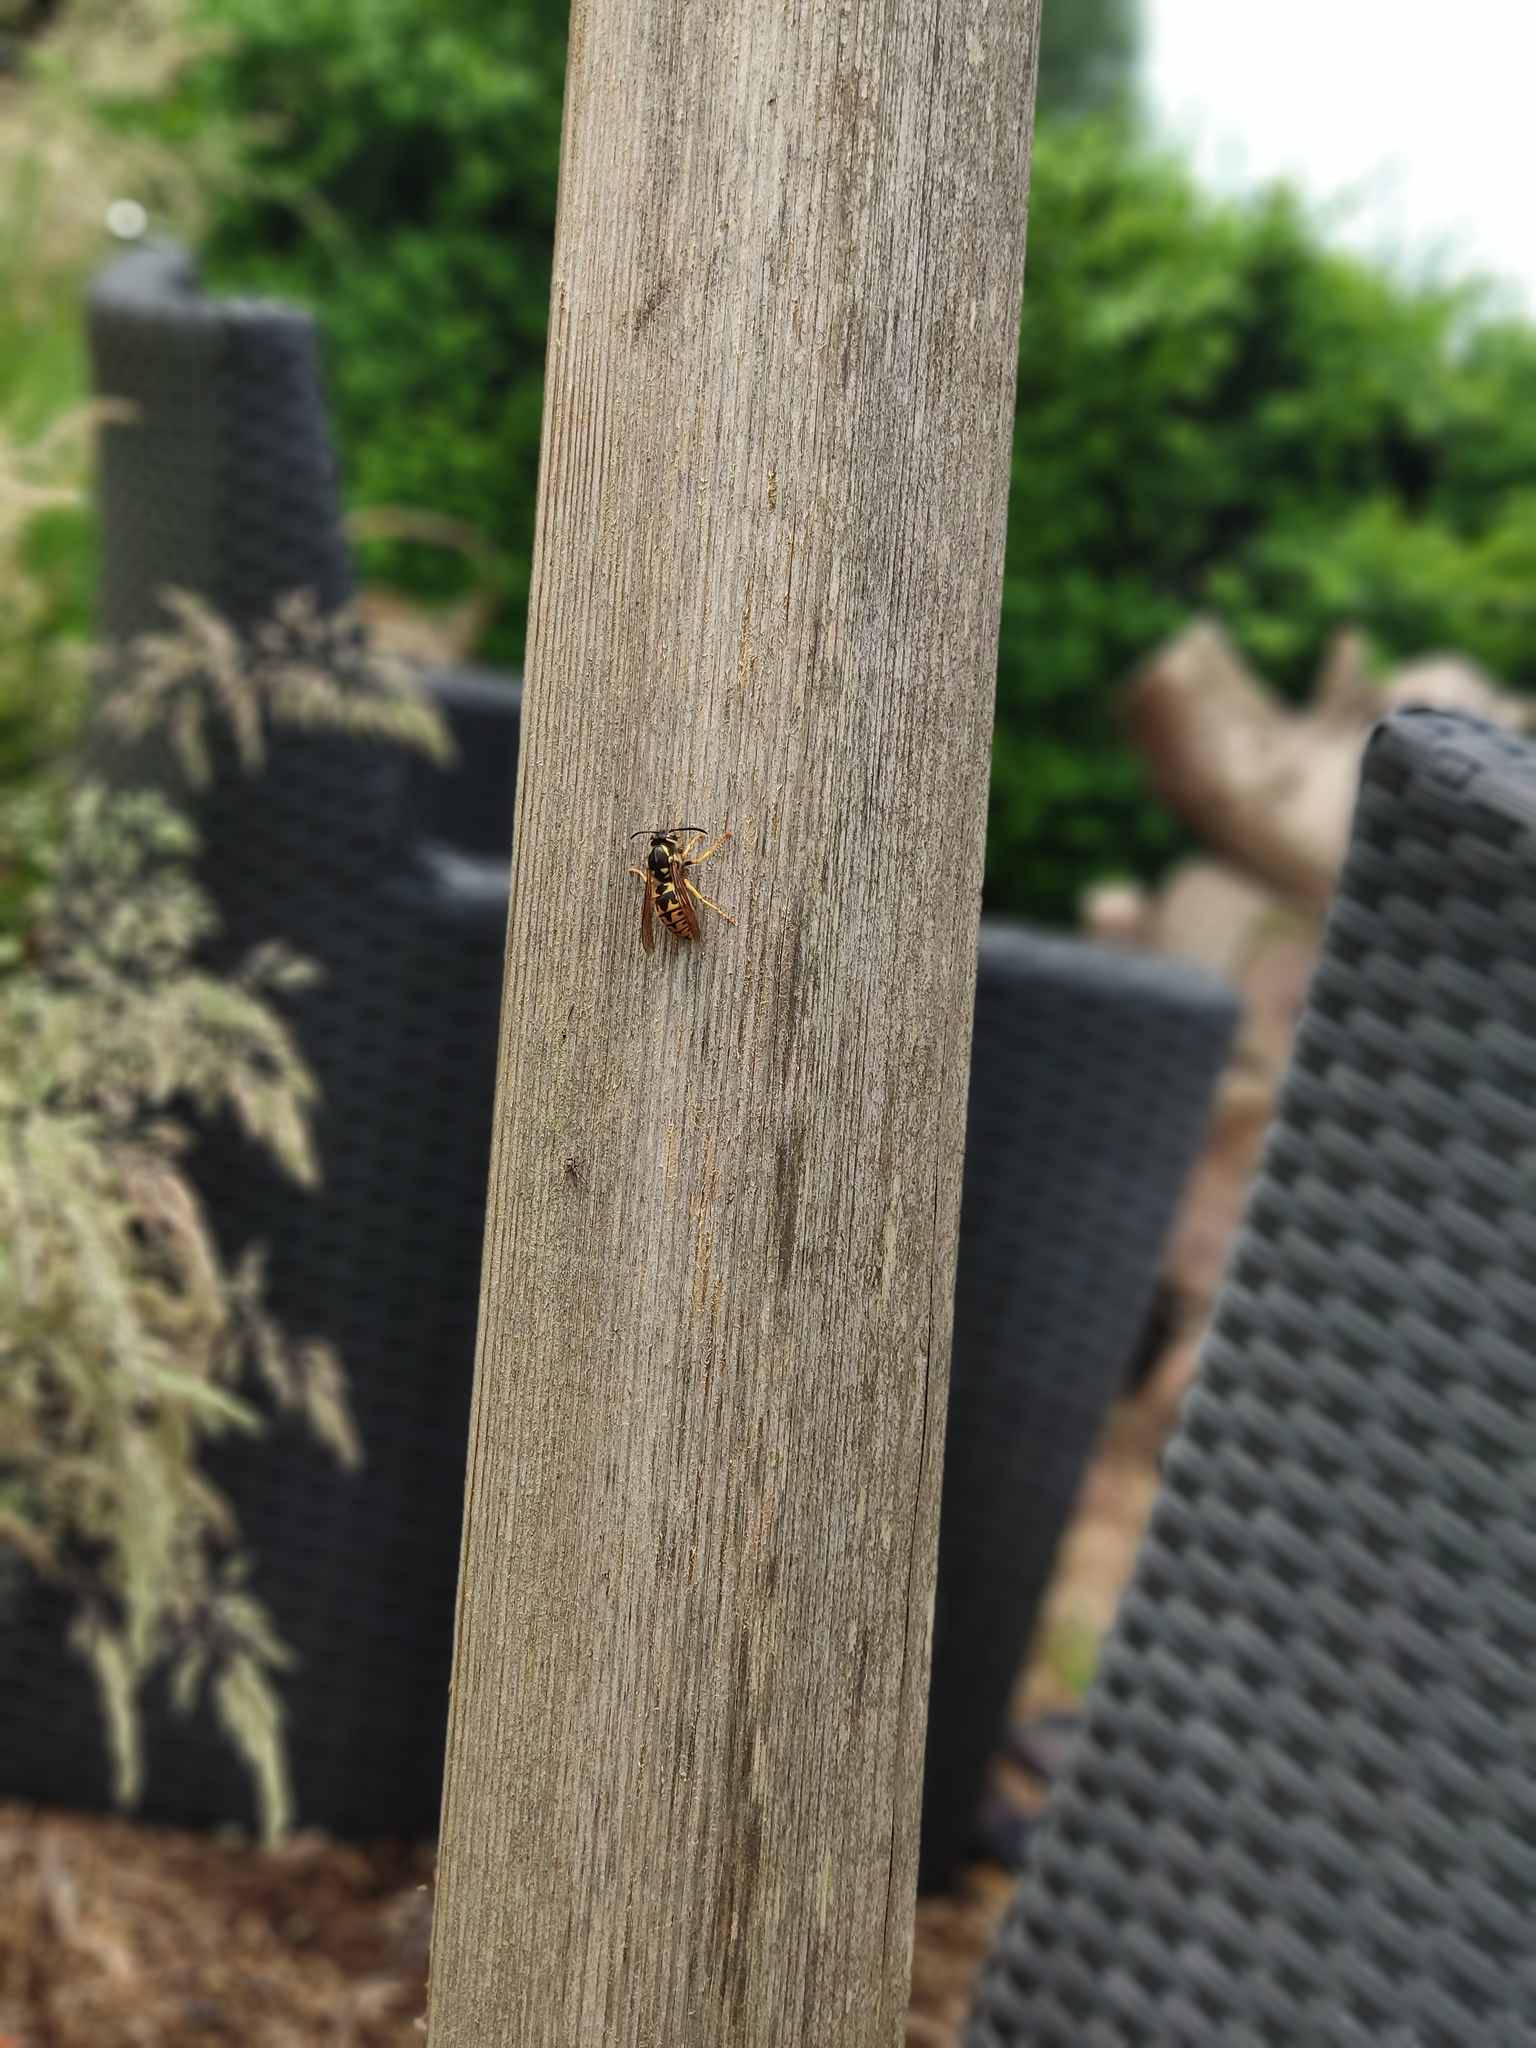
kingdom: Animalia
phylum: Arthropoda
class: Insecta
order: Hymenoptera
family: Vespidae
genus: Vespula
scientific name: Vespula germanica
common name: German wasp
